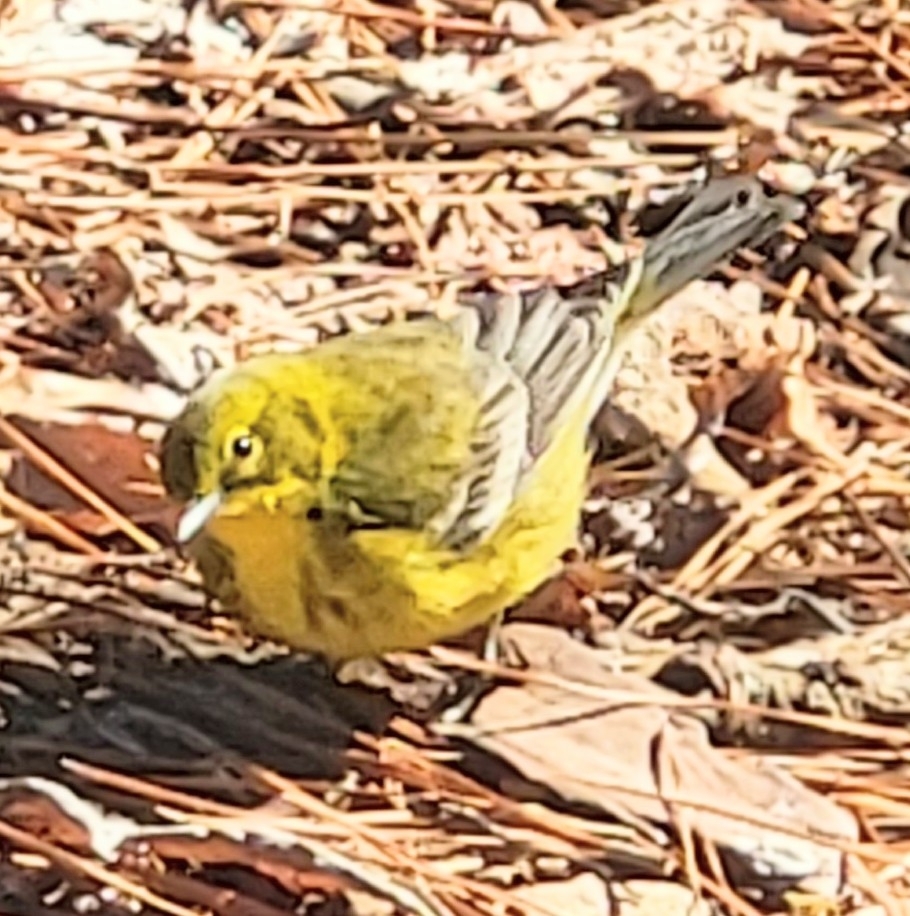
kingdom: Animalia
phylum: Chordata
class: Aves
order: Passeriformes
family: Parulidae
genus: Setophaga
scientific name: Setophaga pinus
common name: Pine warbler
